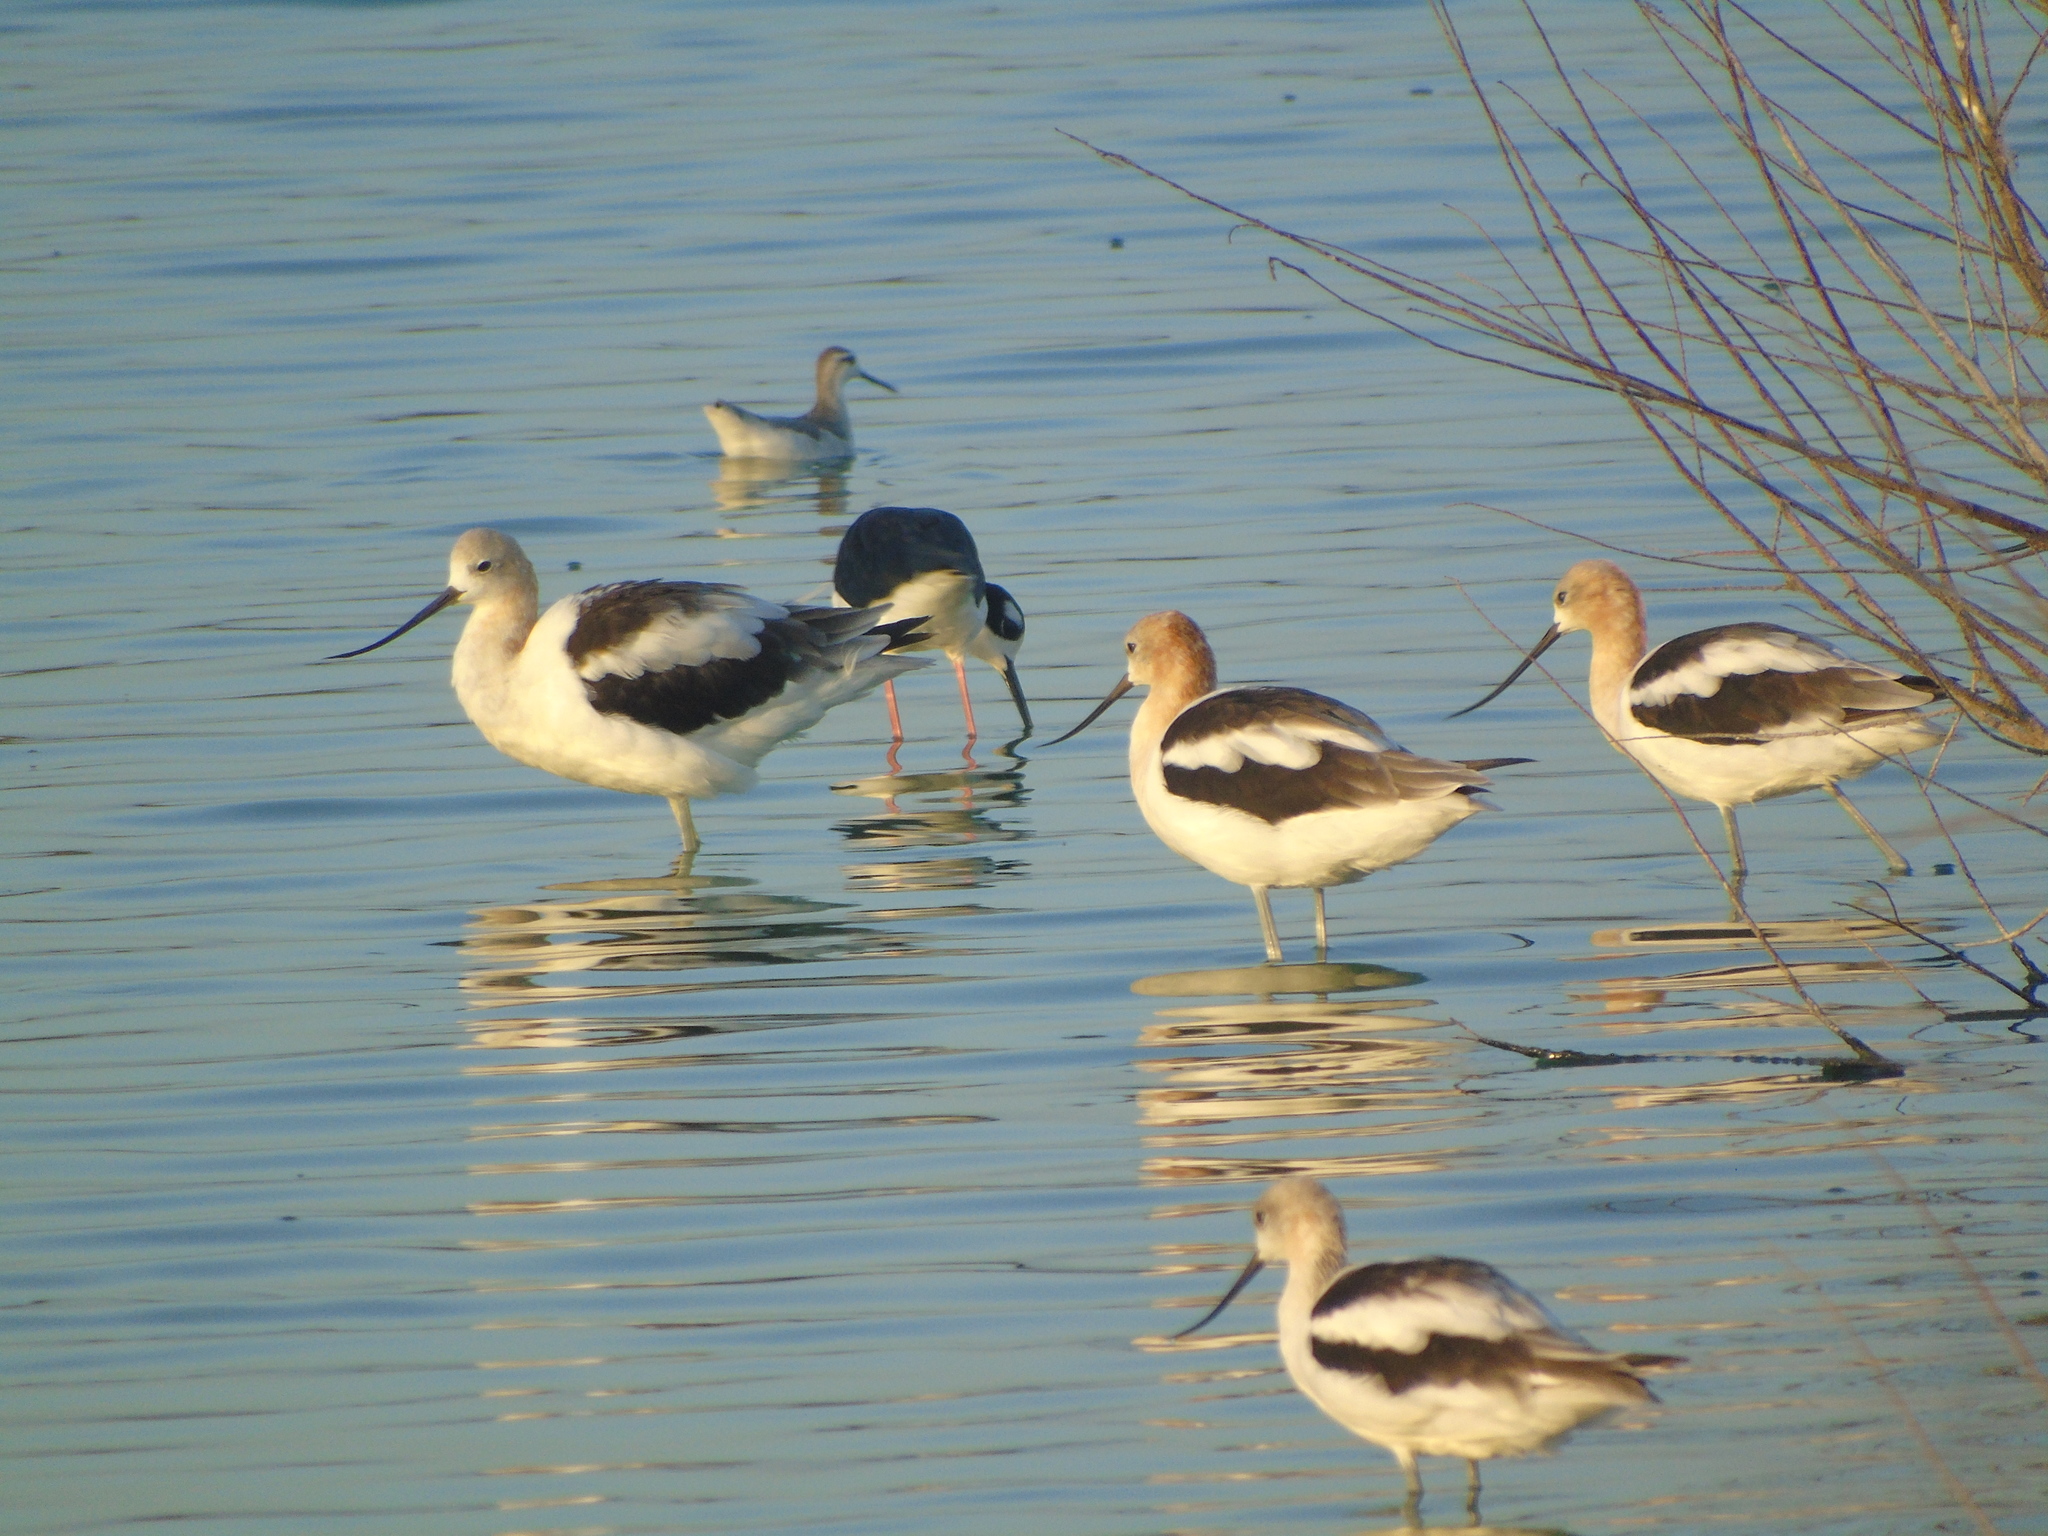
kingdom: Animalia
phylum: Chordata
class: Aves
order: Charadriiformes
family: Recurvirostridae
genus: Recurvirostra
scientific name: Recurvirostra americana
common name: American avocet
